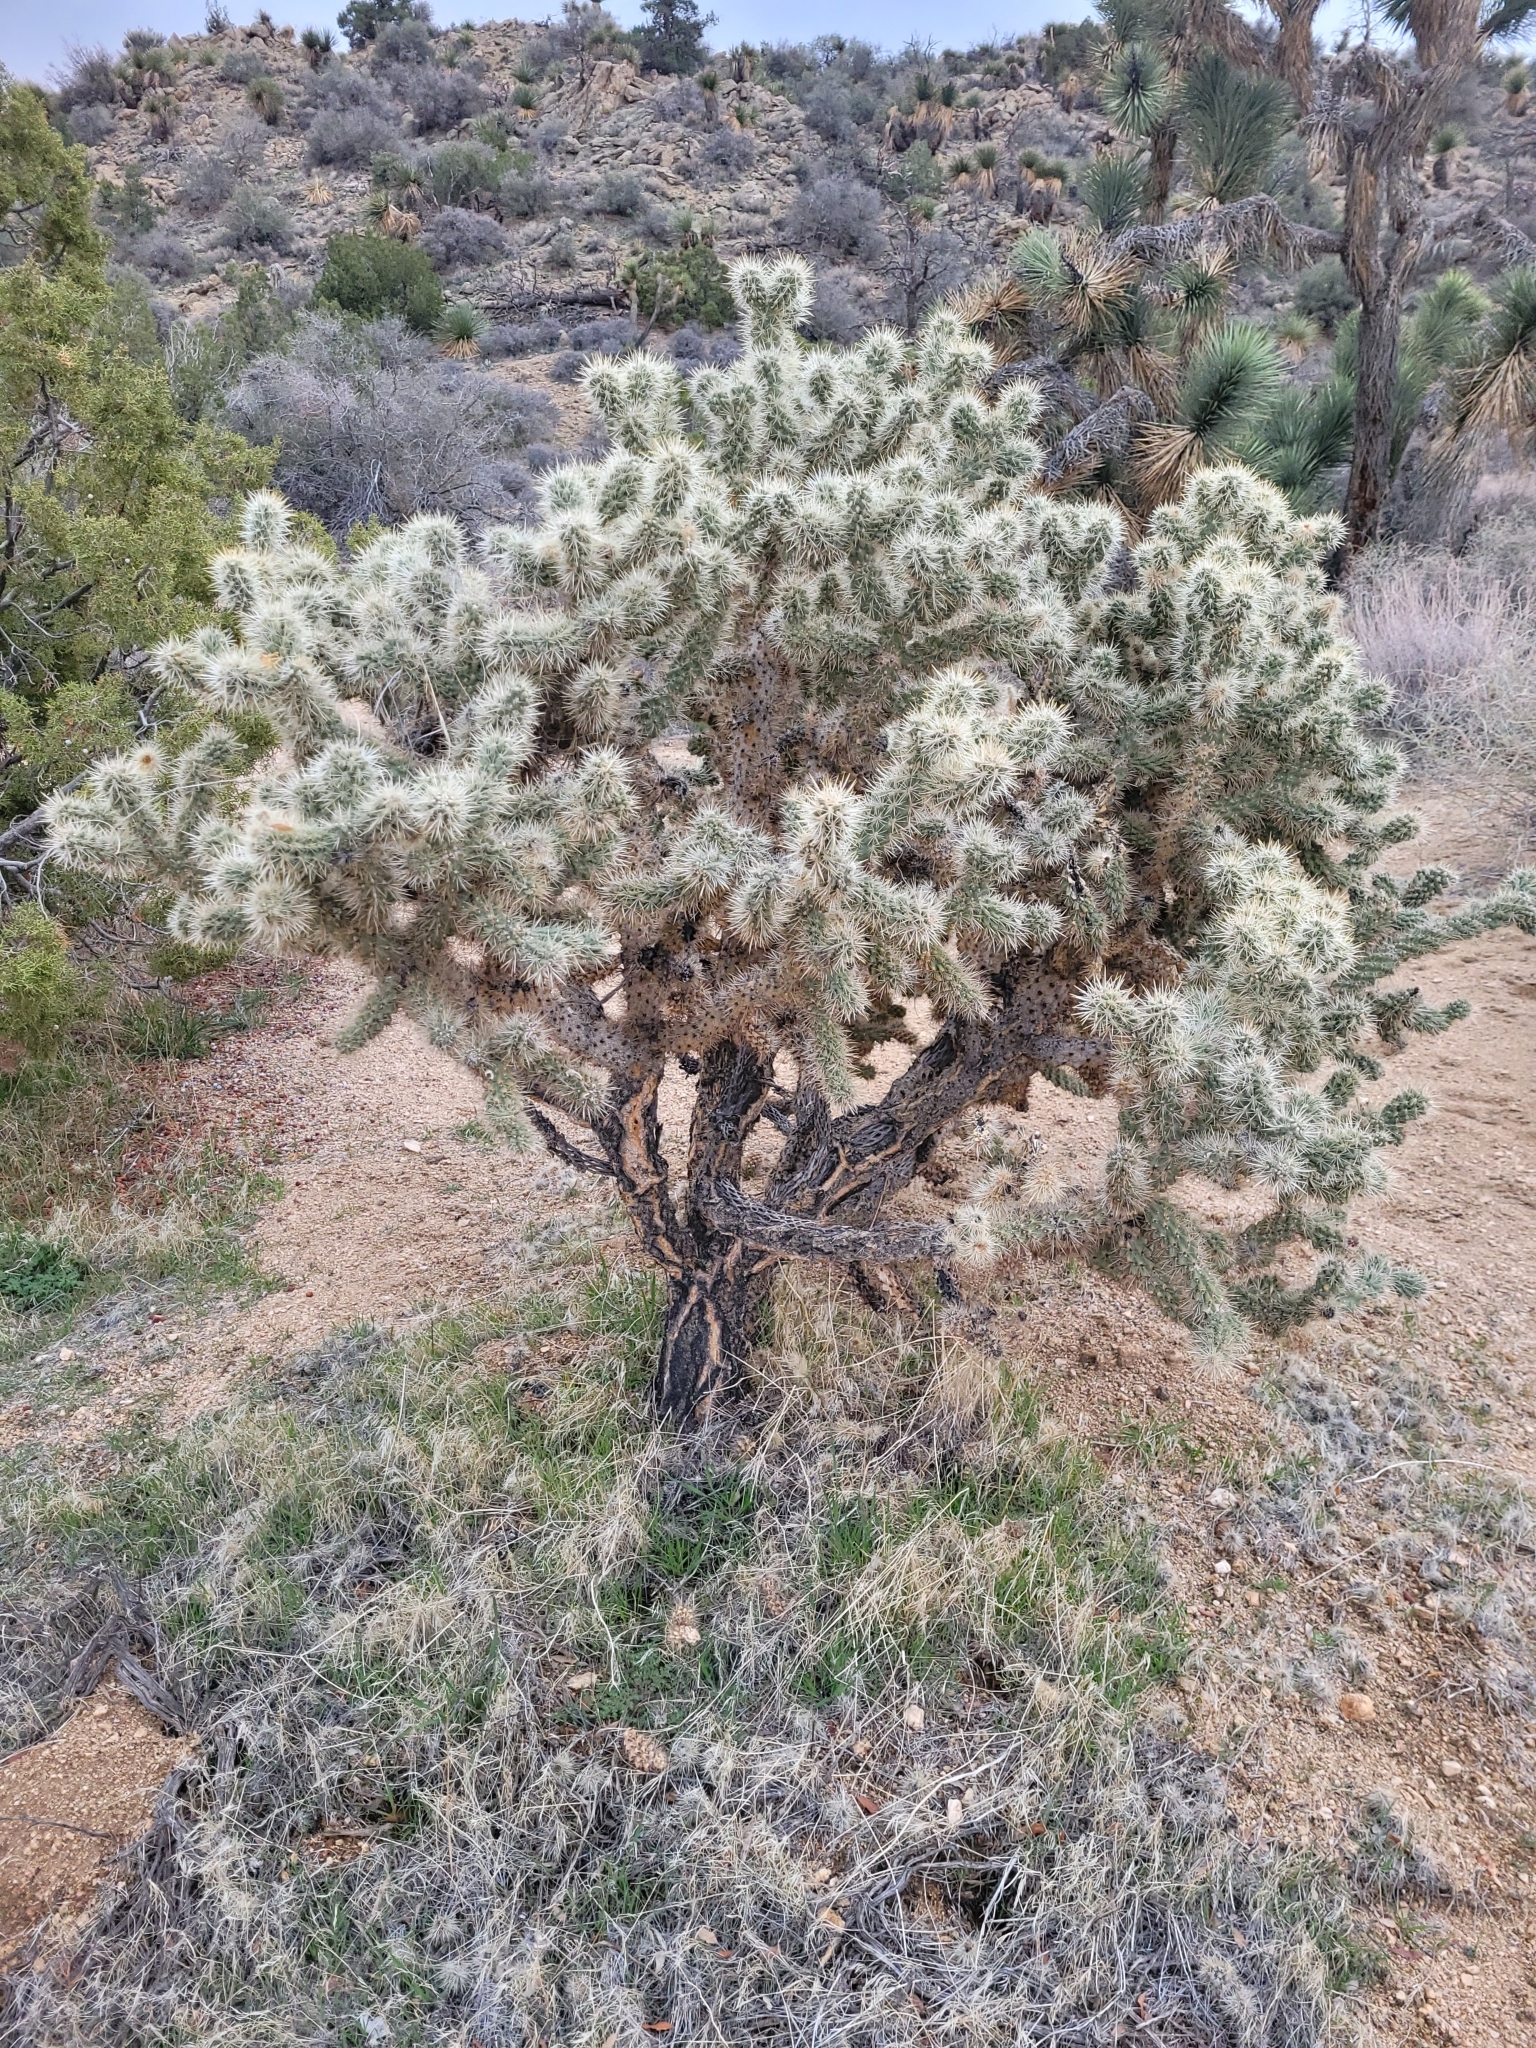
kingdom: Plantae
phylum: Tracheophyta
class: Magnoliopsida
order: Caryophyllales
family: Cactaceae
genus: Cylindropuntia
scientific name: Cylindropuntia echinocarpa
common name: Ground cholla
